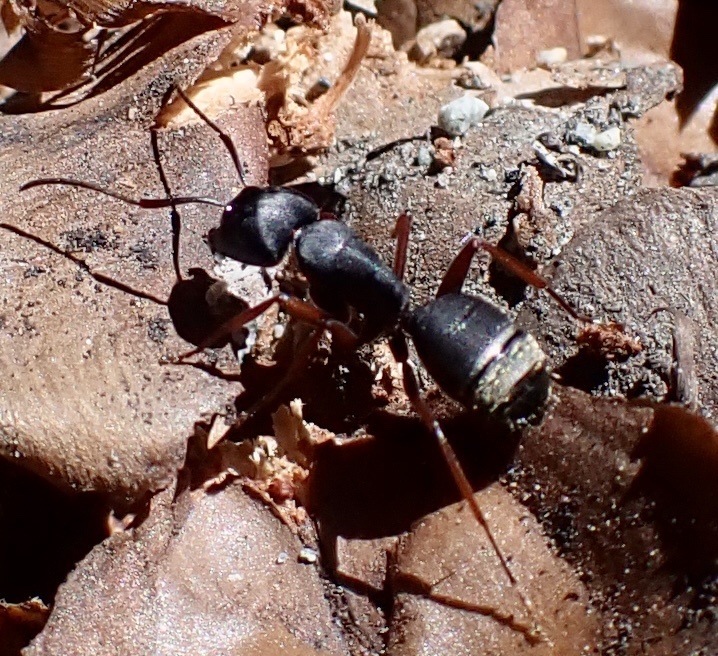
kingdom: Animalia
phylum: Arthropoda
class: Insecta
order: Hymenoptera
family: Formicidae
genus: Camponotus
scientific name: Camponotus modoc
